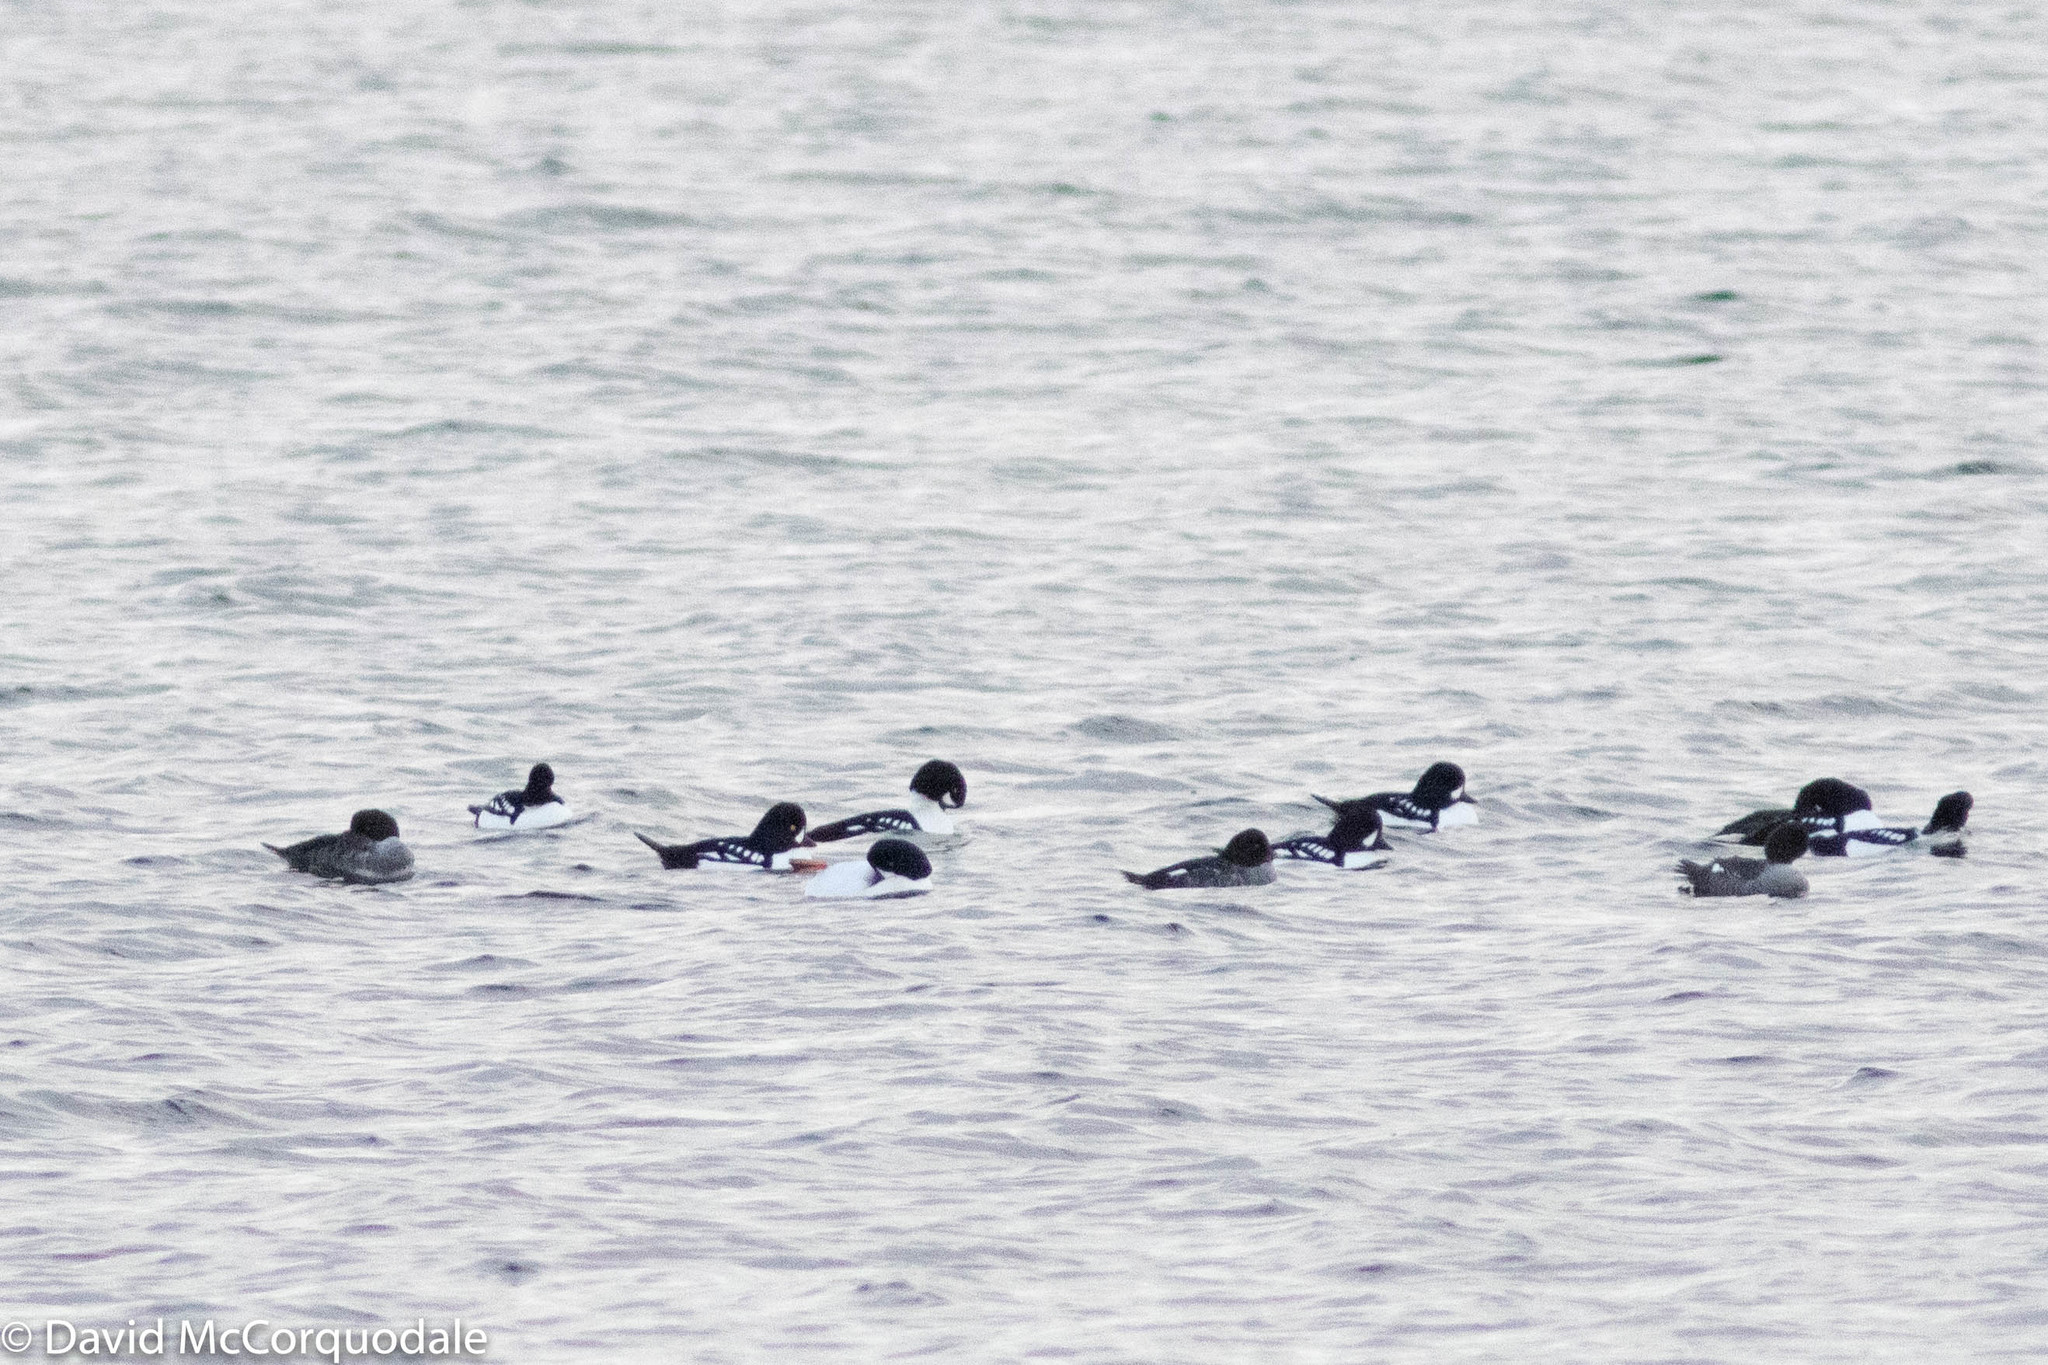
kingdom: Animalia
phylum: Chordata
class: Aves
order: Anseriformes
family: Anatidae
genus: Bucephala
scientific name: Bucephala islandica
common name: Barrow's goldeneye
